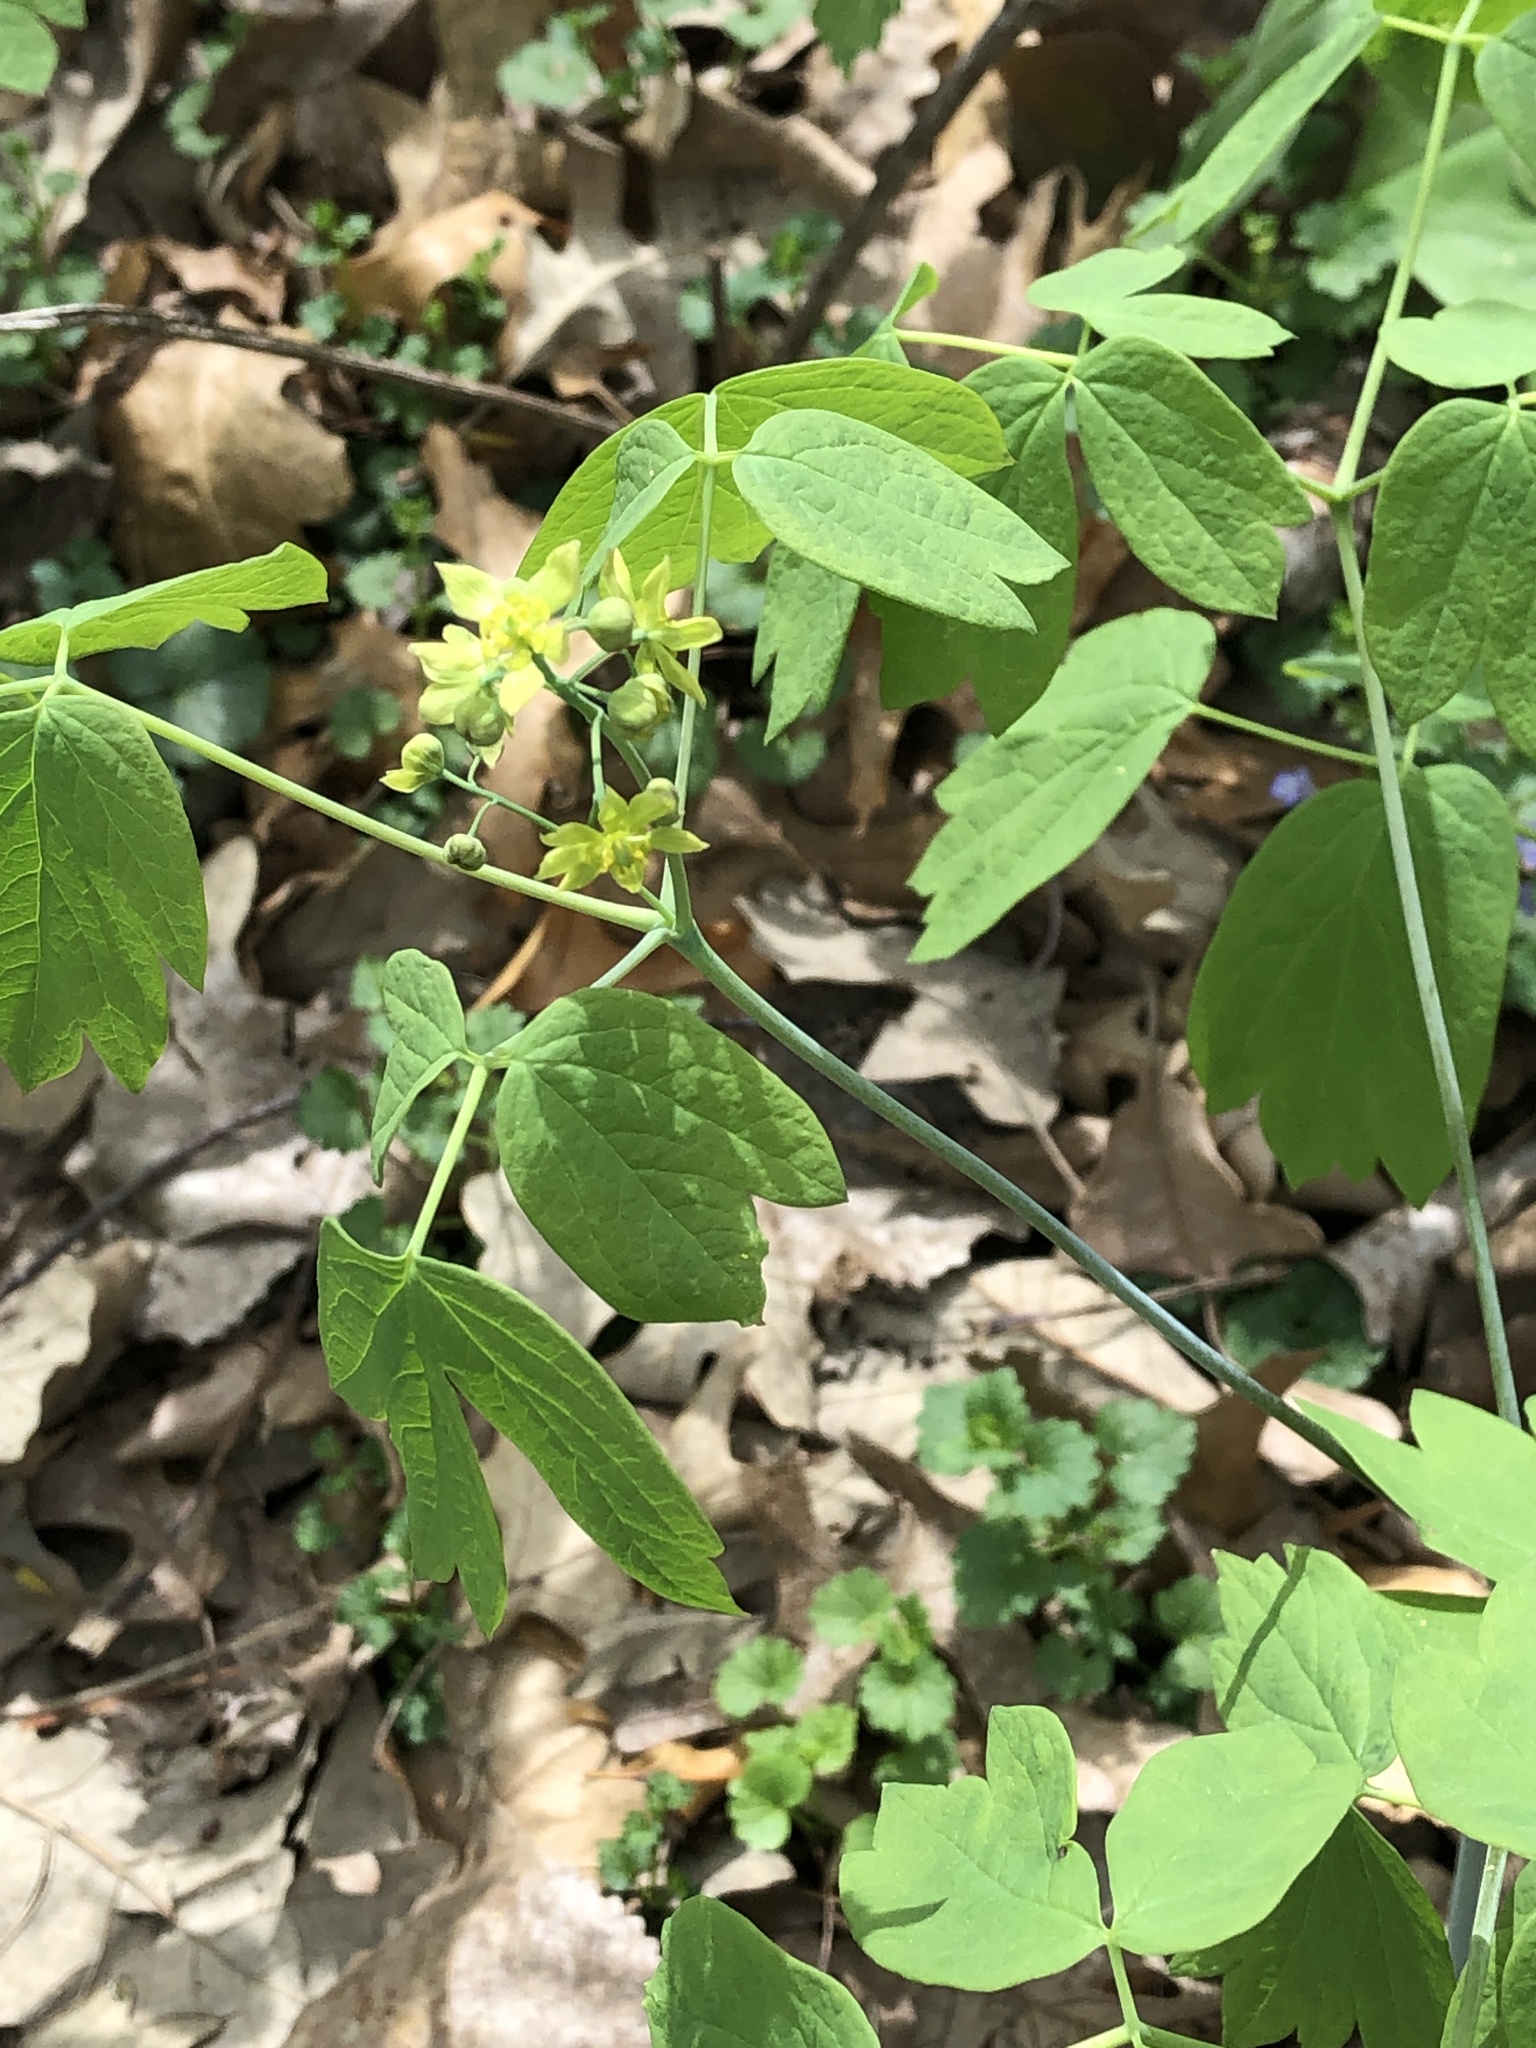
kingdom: Plantae
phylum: Tracheophyta
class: Magnoliopsida
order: Ranunculales
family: Berberidaceae
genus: Caulophyllum
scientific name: Caulophyllum thalictroides
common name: Blue cohosh
